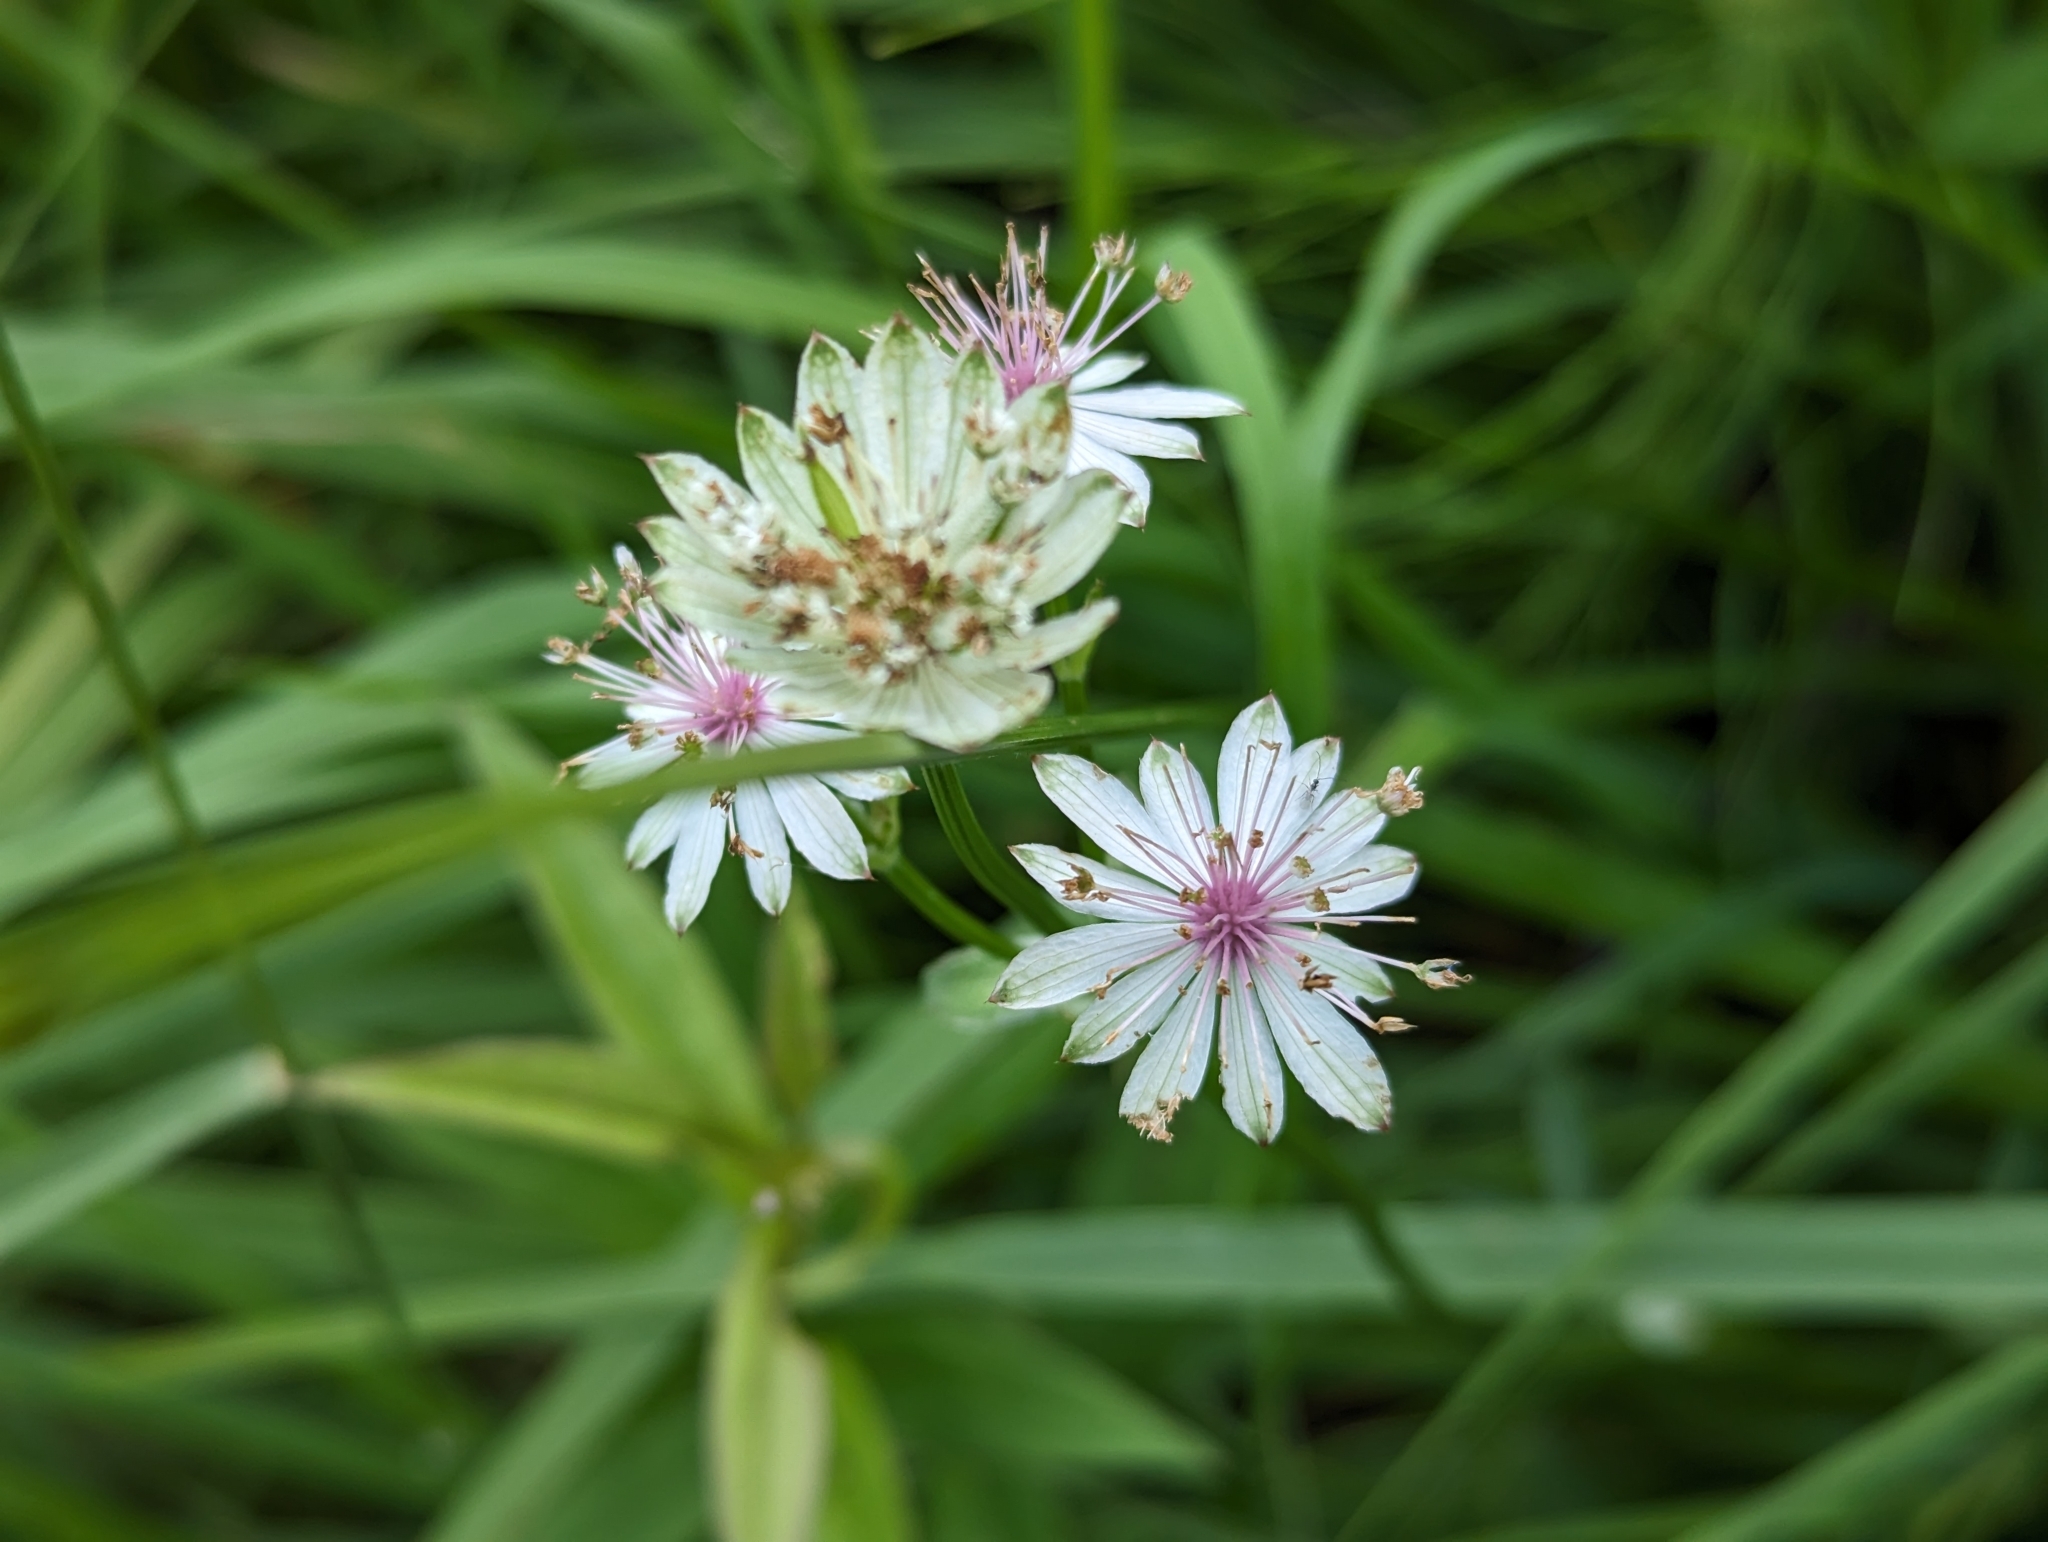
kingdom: Plantae
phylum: Tracheophyta
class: Magnoliopsida
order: Apiales
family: Apiaceae
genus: Astrantia
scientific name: Astrantia major
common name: Greater masterwort
